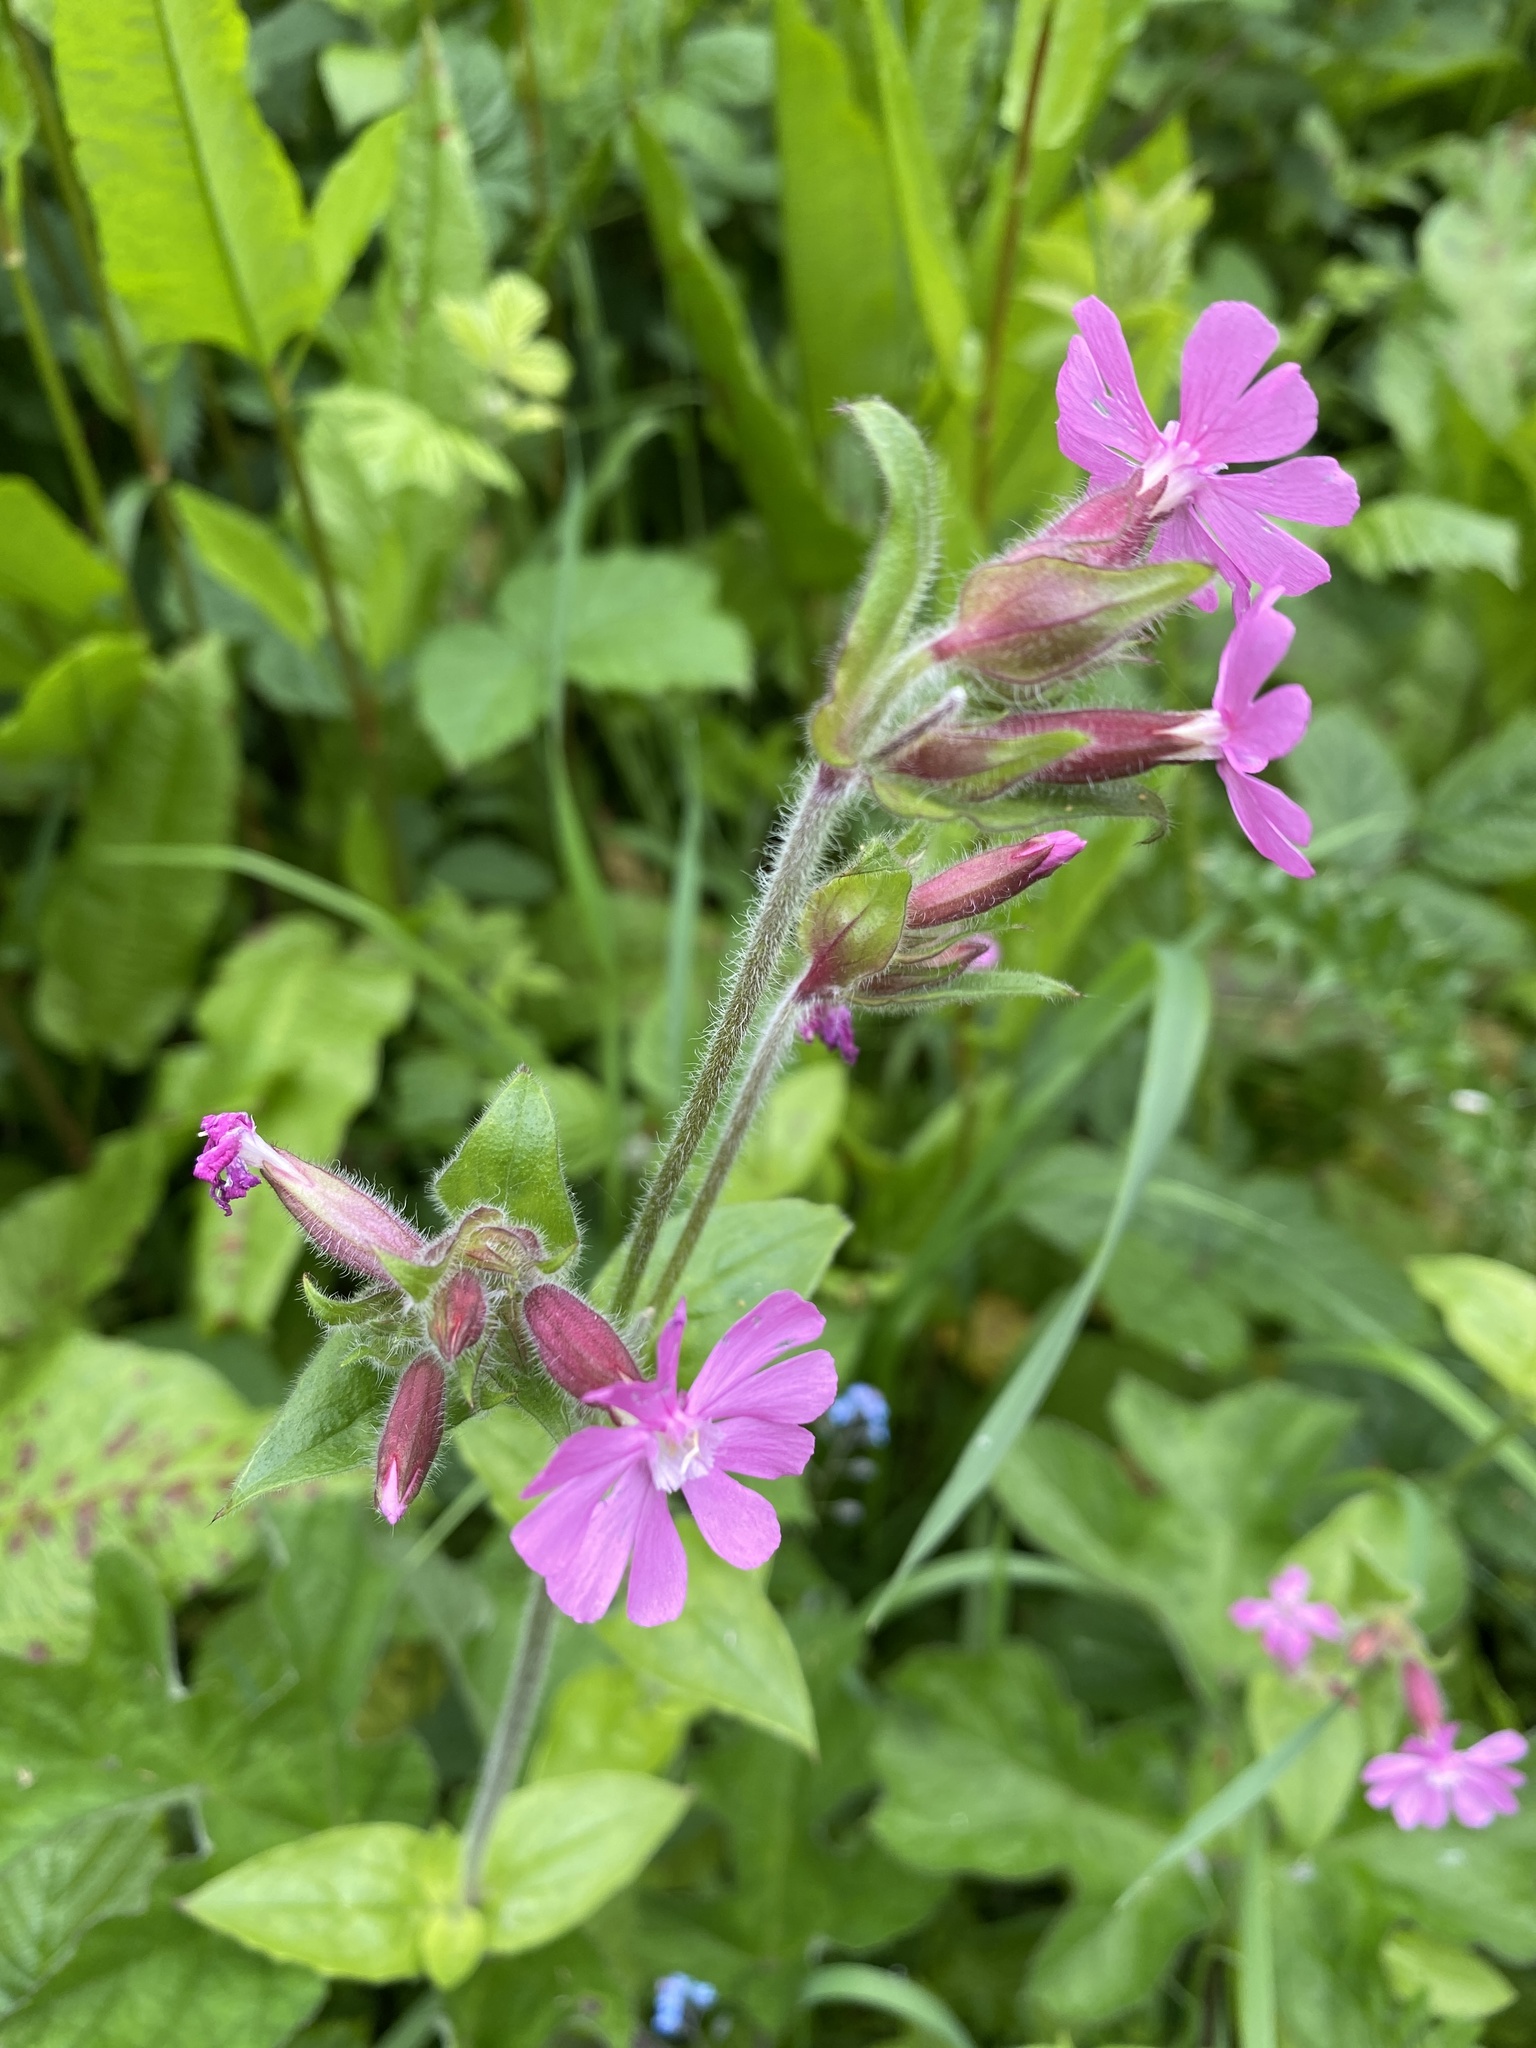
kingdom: Plantae
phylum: Tracheophyta
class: Magnoliopsida
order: Caryophyllales
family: Caryophyllaceae
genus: Silene
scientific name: Silene dioica
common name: Red campion
